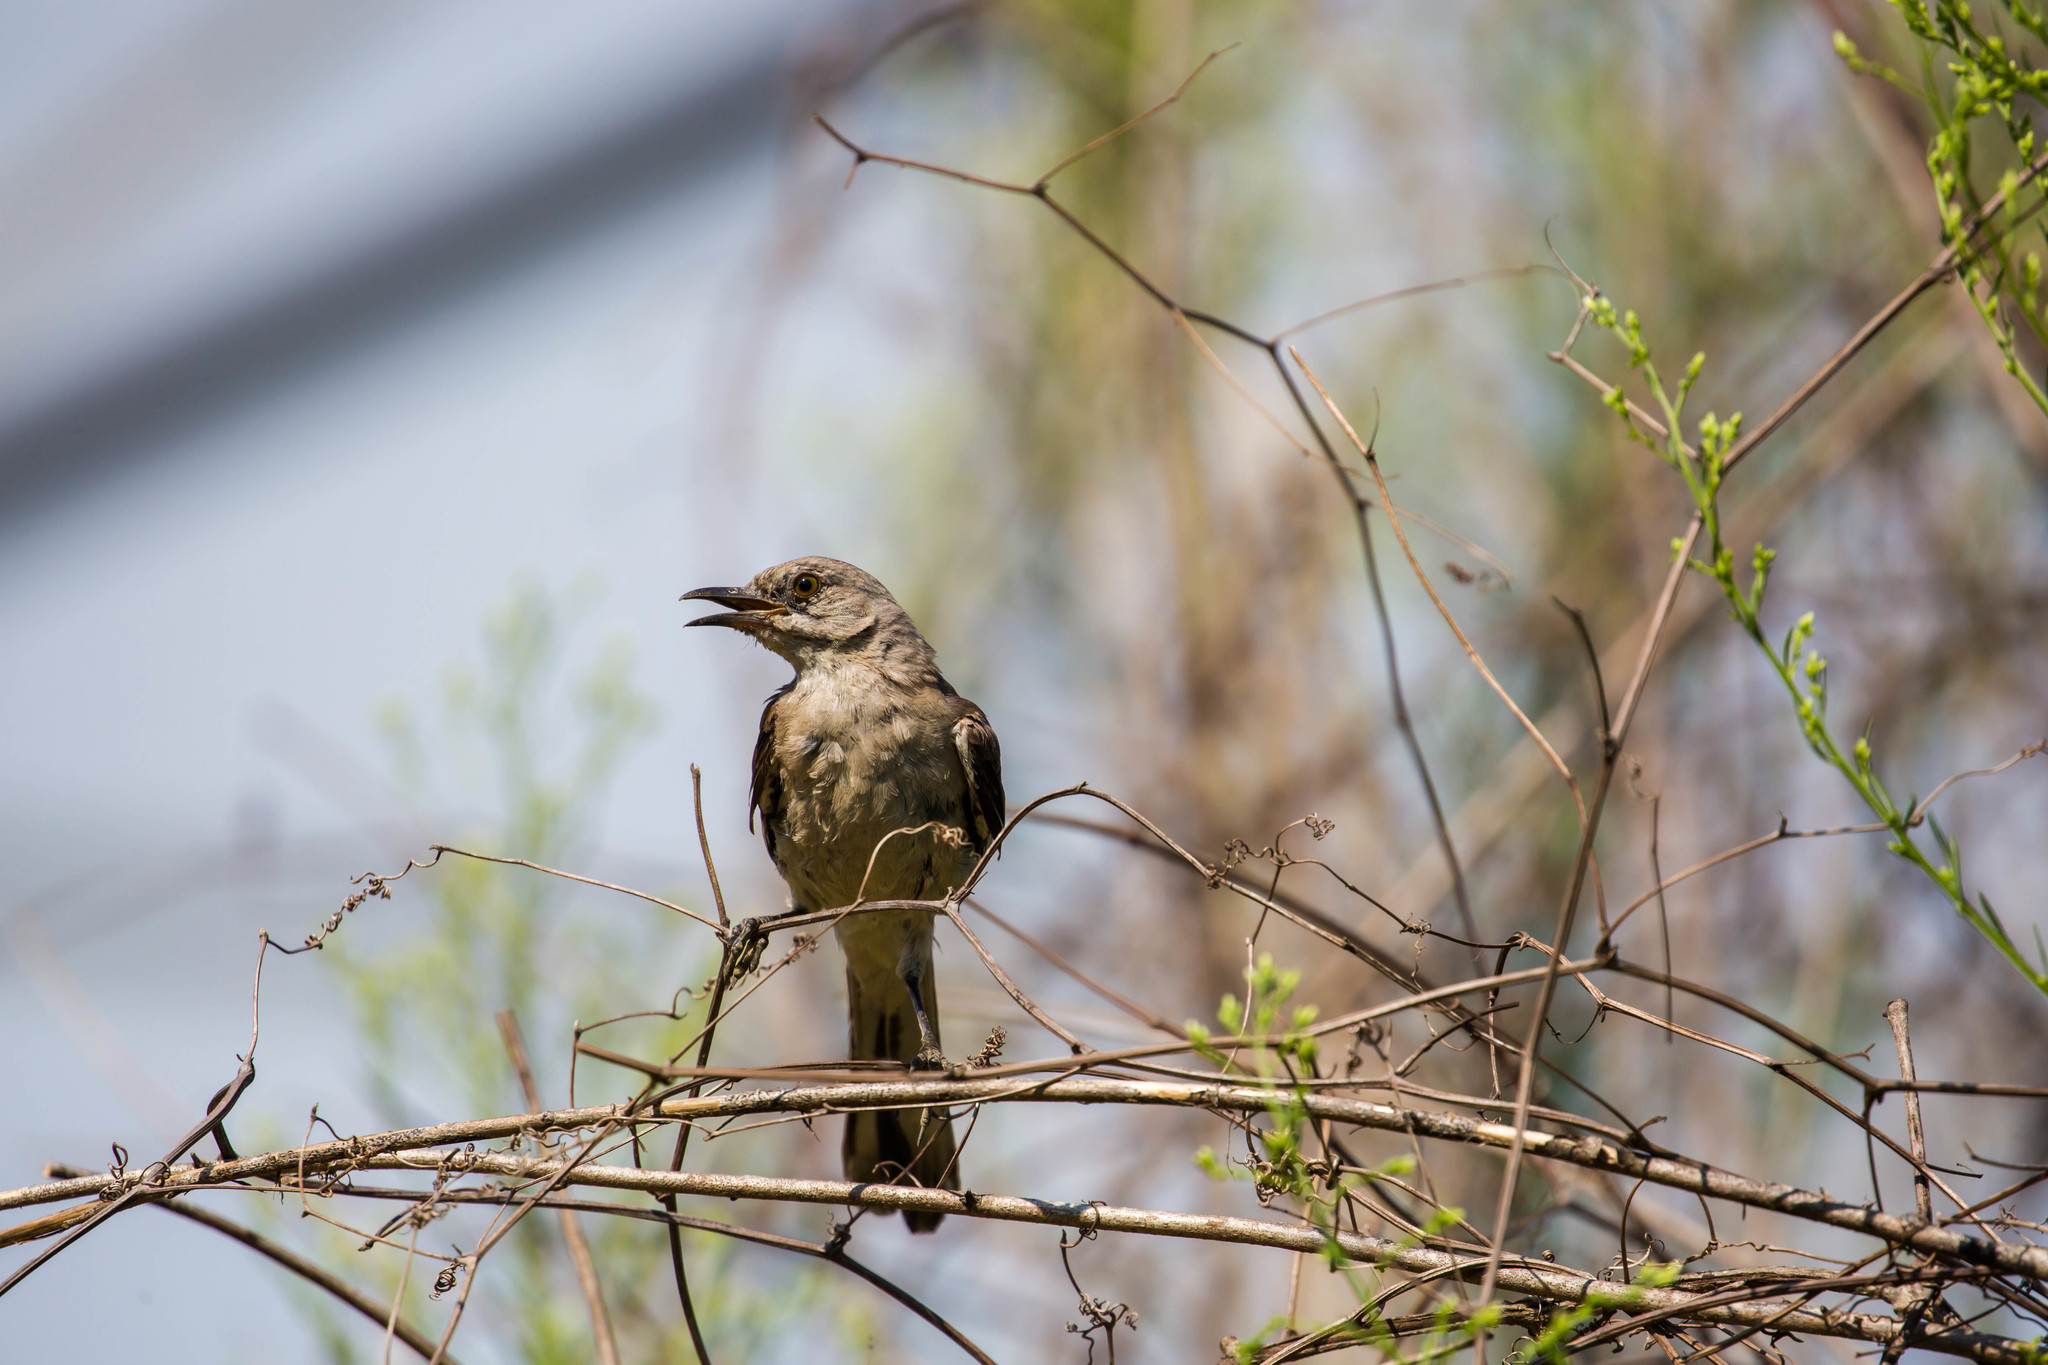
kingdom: Animalia
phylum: Chordata
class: Aves
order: Passeriformes
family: Mimidae
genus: Mimus
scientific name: Mimus polyglottos
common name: Northern mockingbird
